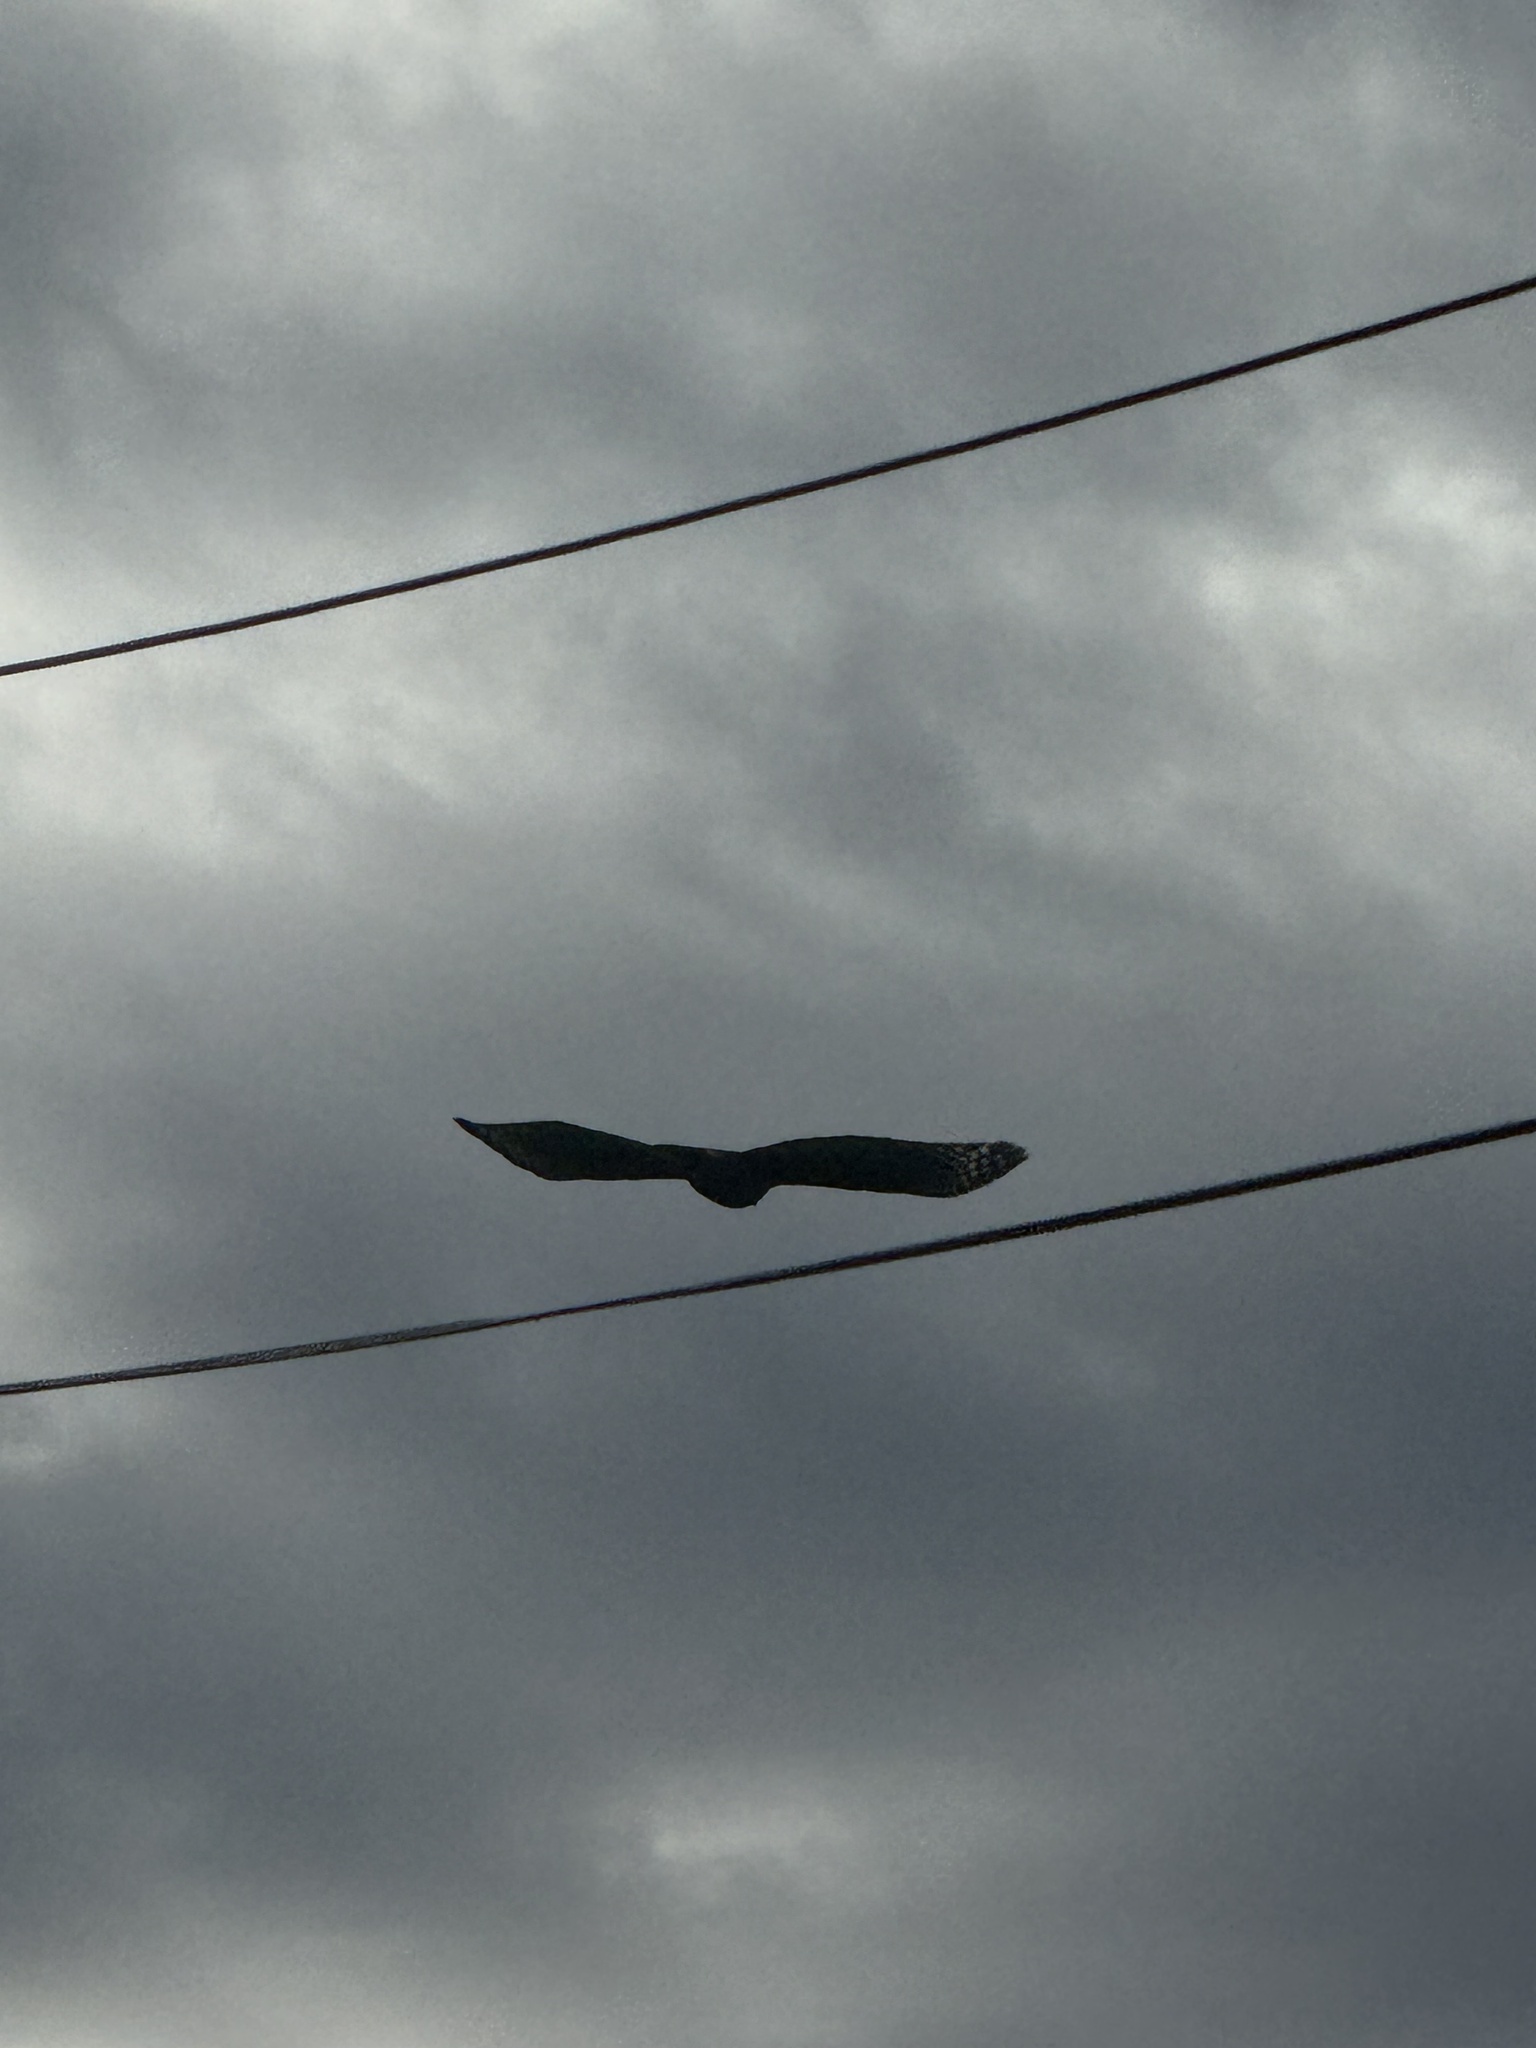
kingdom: Animalia
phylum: Chordata
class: Aves
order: Accipitriformes
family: Accipitridae
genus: Buteo
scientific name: Buteo lineatus
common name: Red-shouldered hawk
